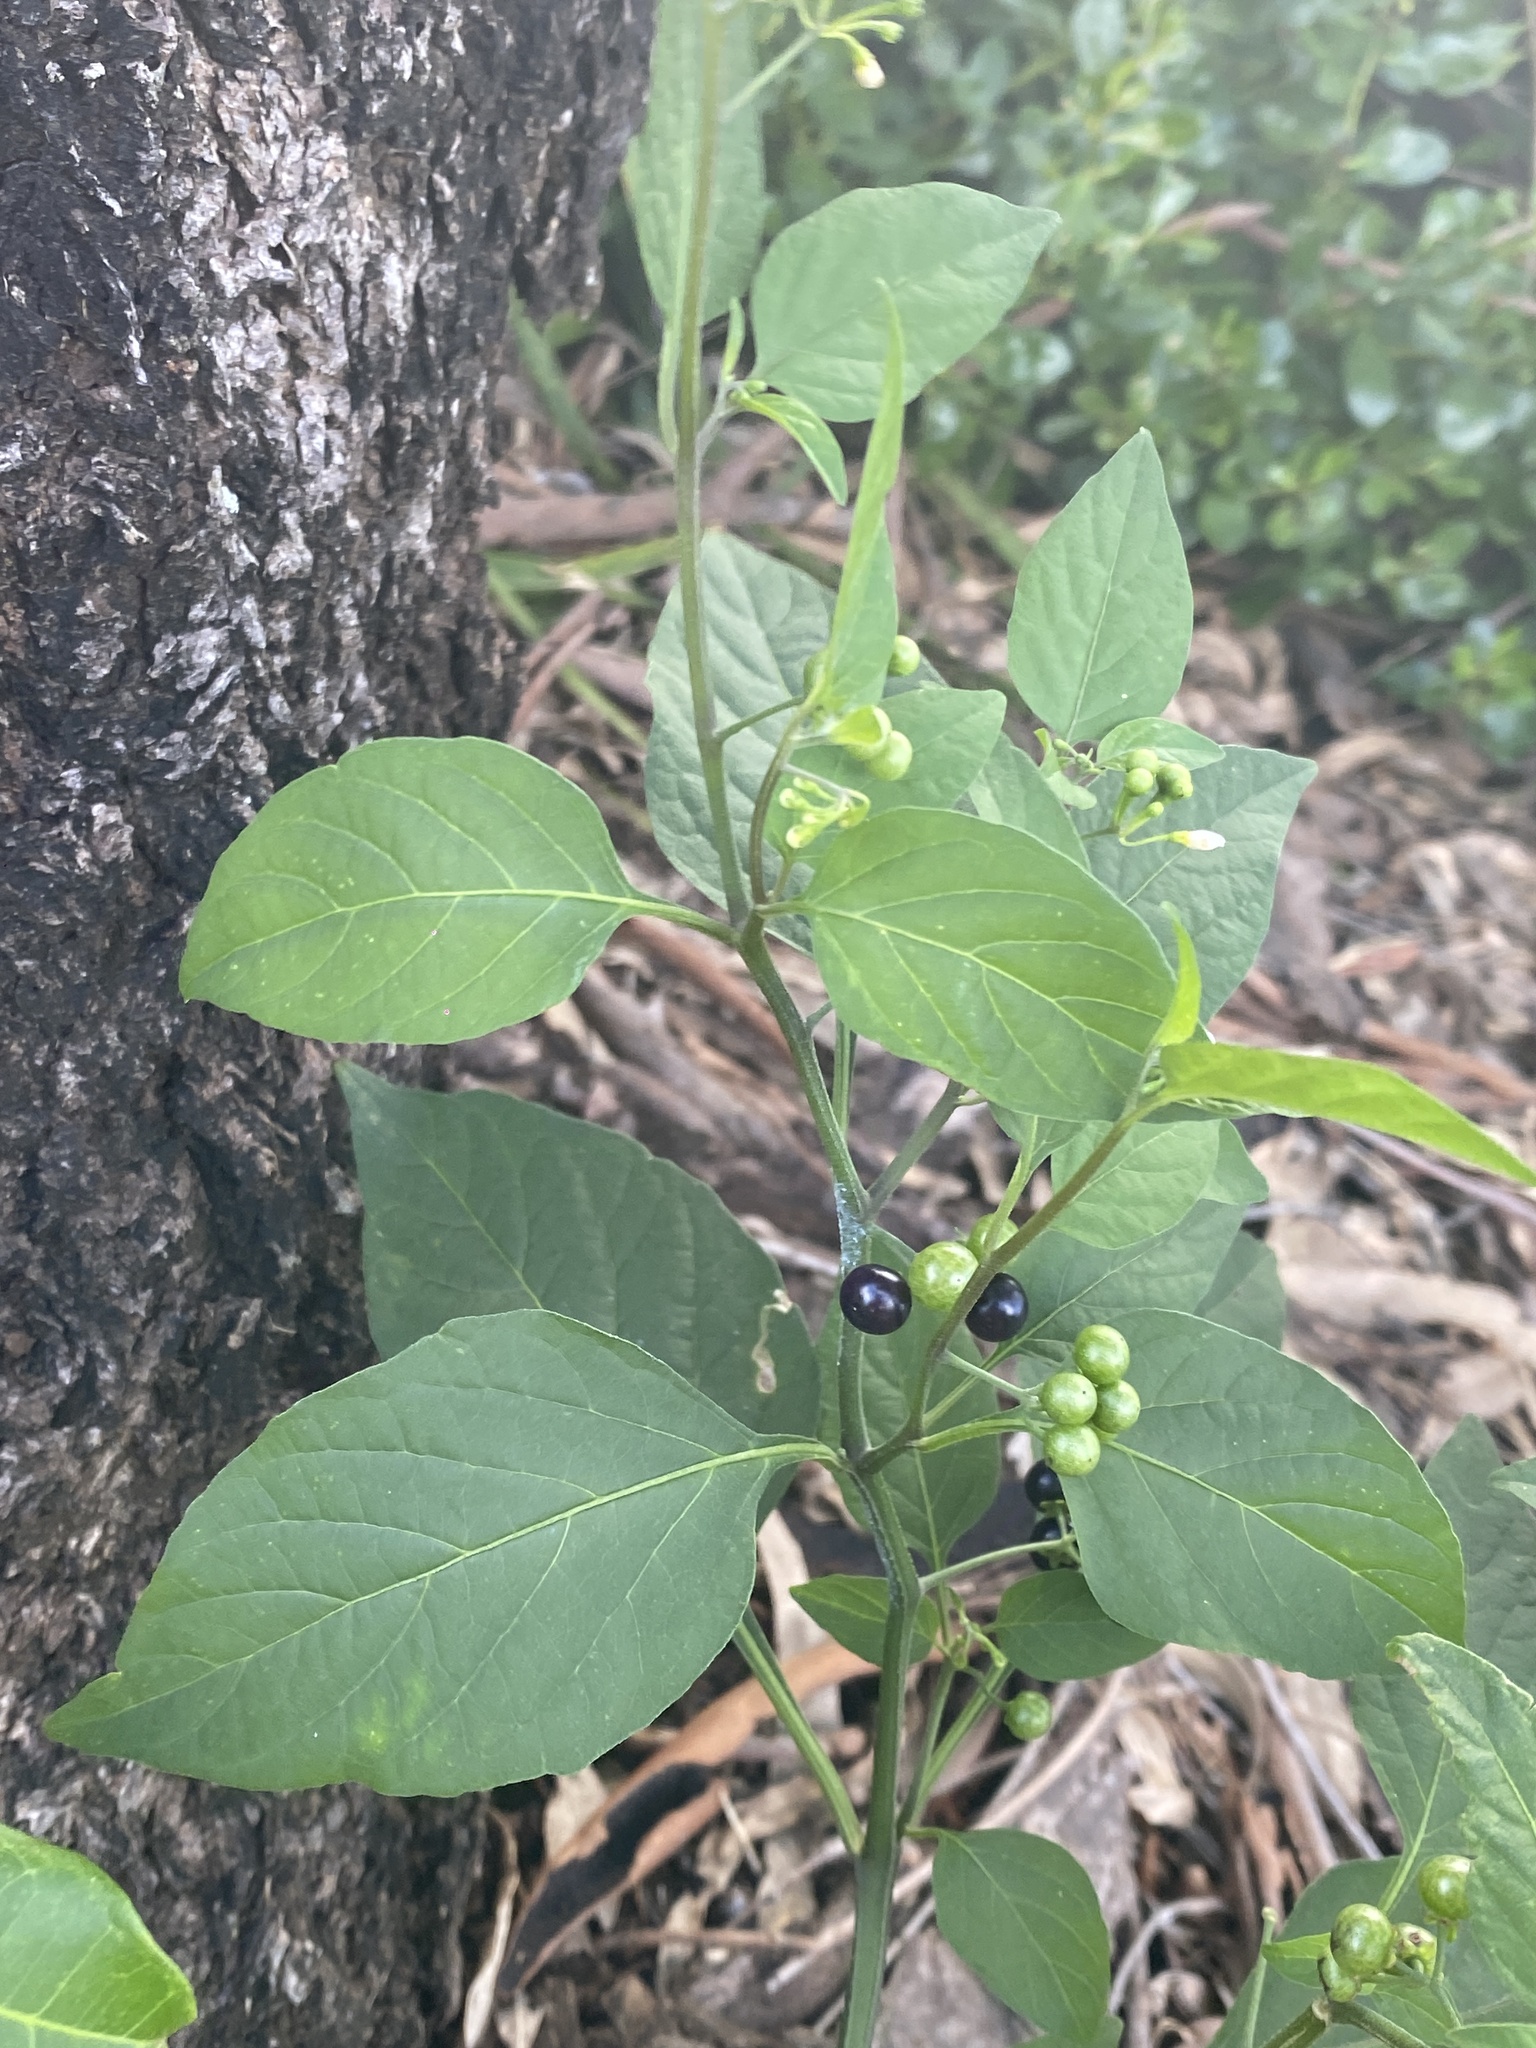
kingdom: Plantae
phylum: Tracheophyta
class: Magnoliopsida
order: Solanales
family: Solanaceae
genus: Solanum
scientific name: Solanum americanum
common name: American black nightshade
